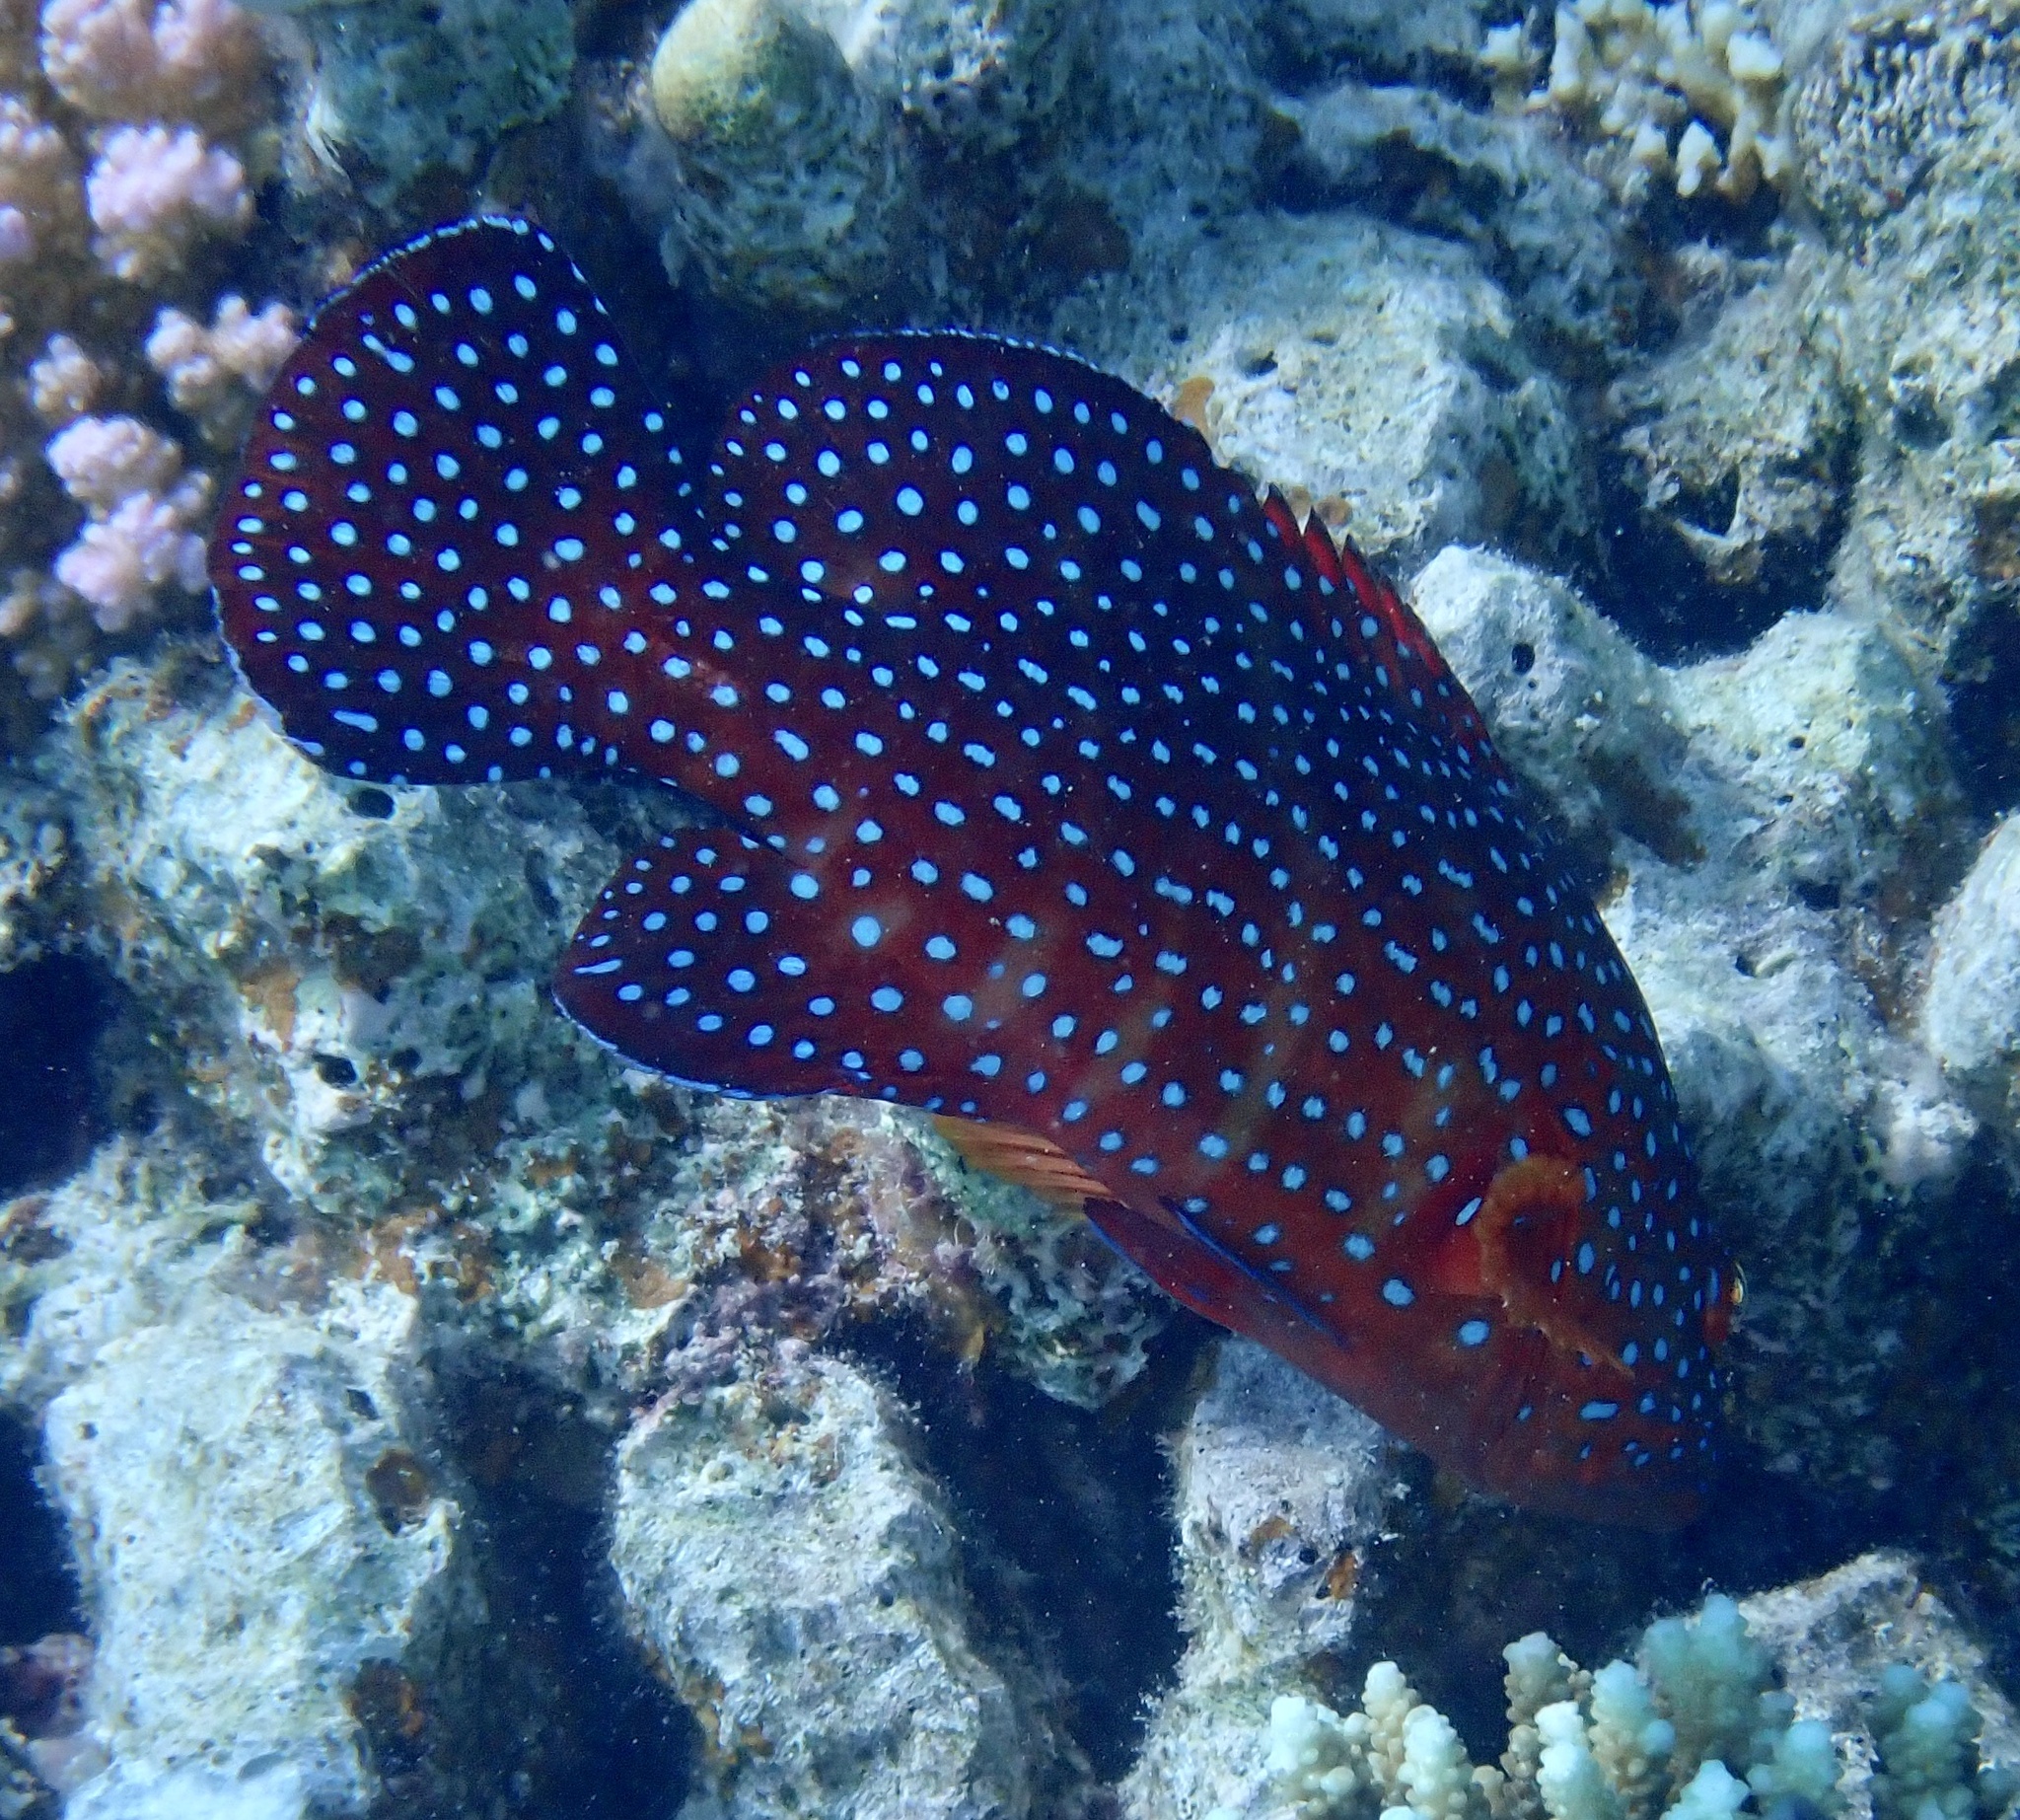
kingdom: Animalia
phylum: Chordata
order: Perciformes
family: Serranidae
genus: Cephalopholis
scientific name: Cephalopholis miniata
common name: Coral hind
